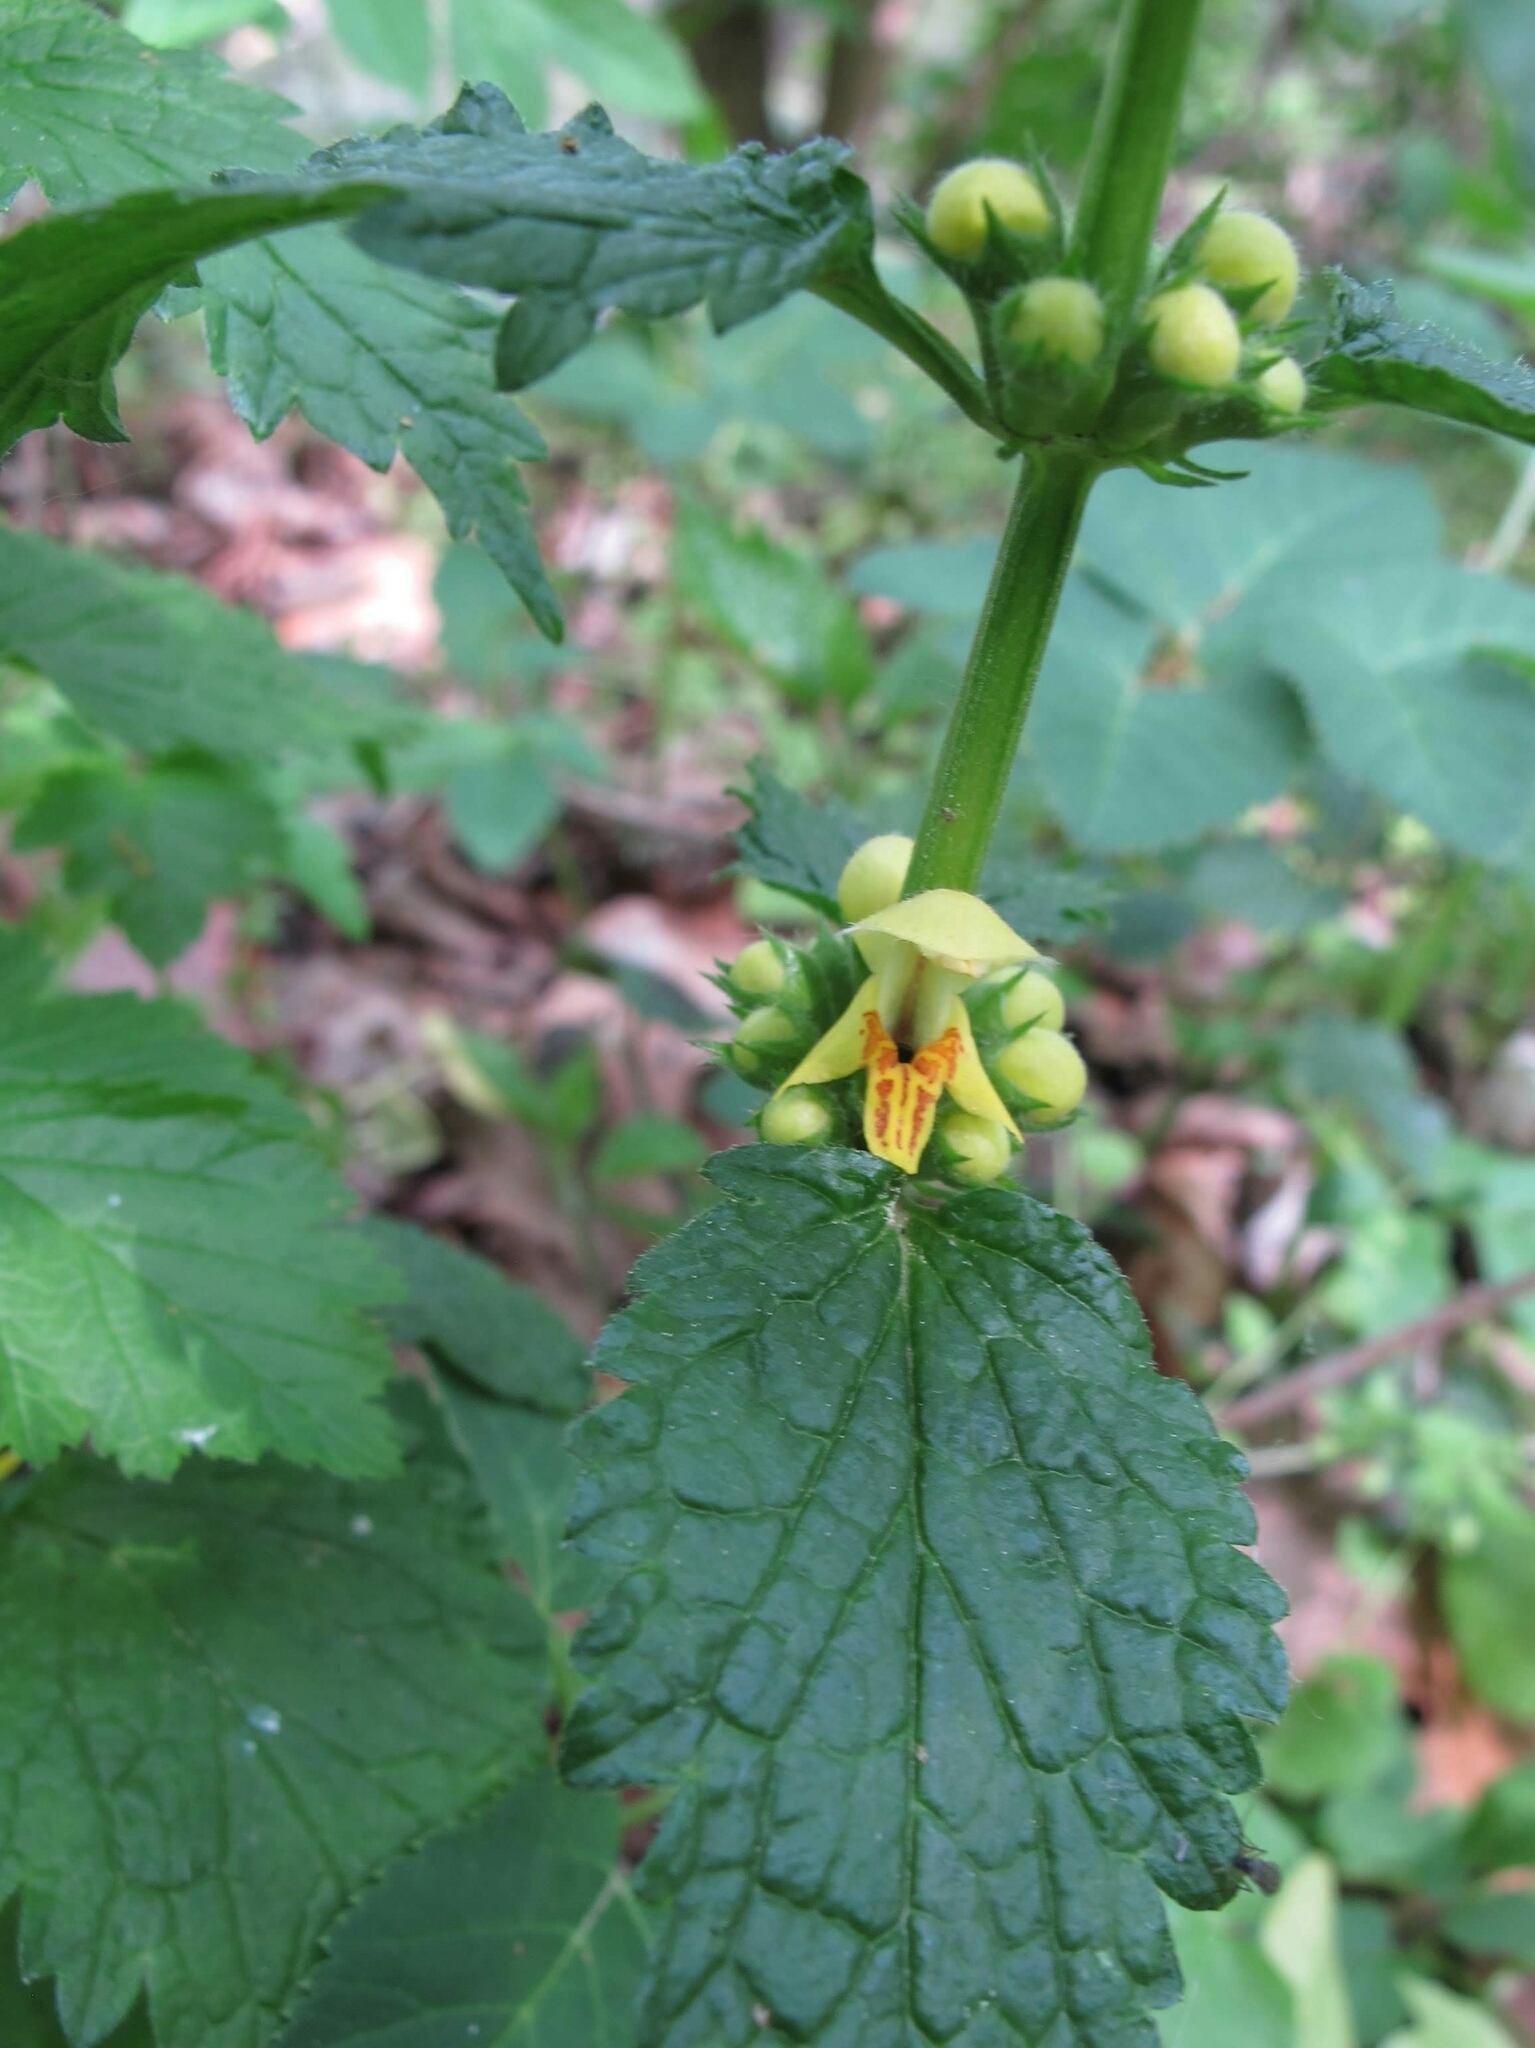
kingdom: Plantae
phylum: Tracheophyta
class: Magnoliopsida
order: Lamiales
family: Lamiaceae
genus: Lamium
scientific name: Lamium galeobdolon
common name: Yellow archangel
